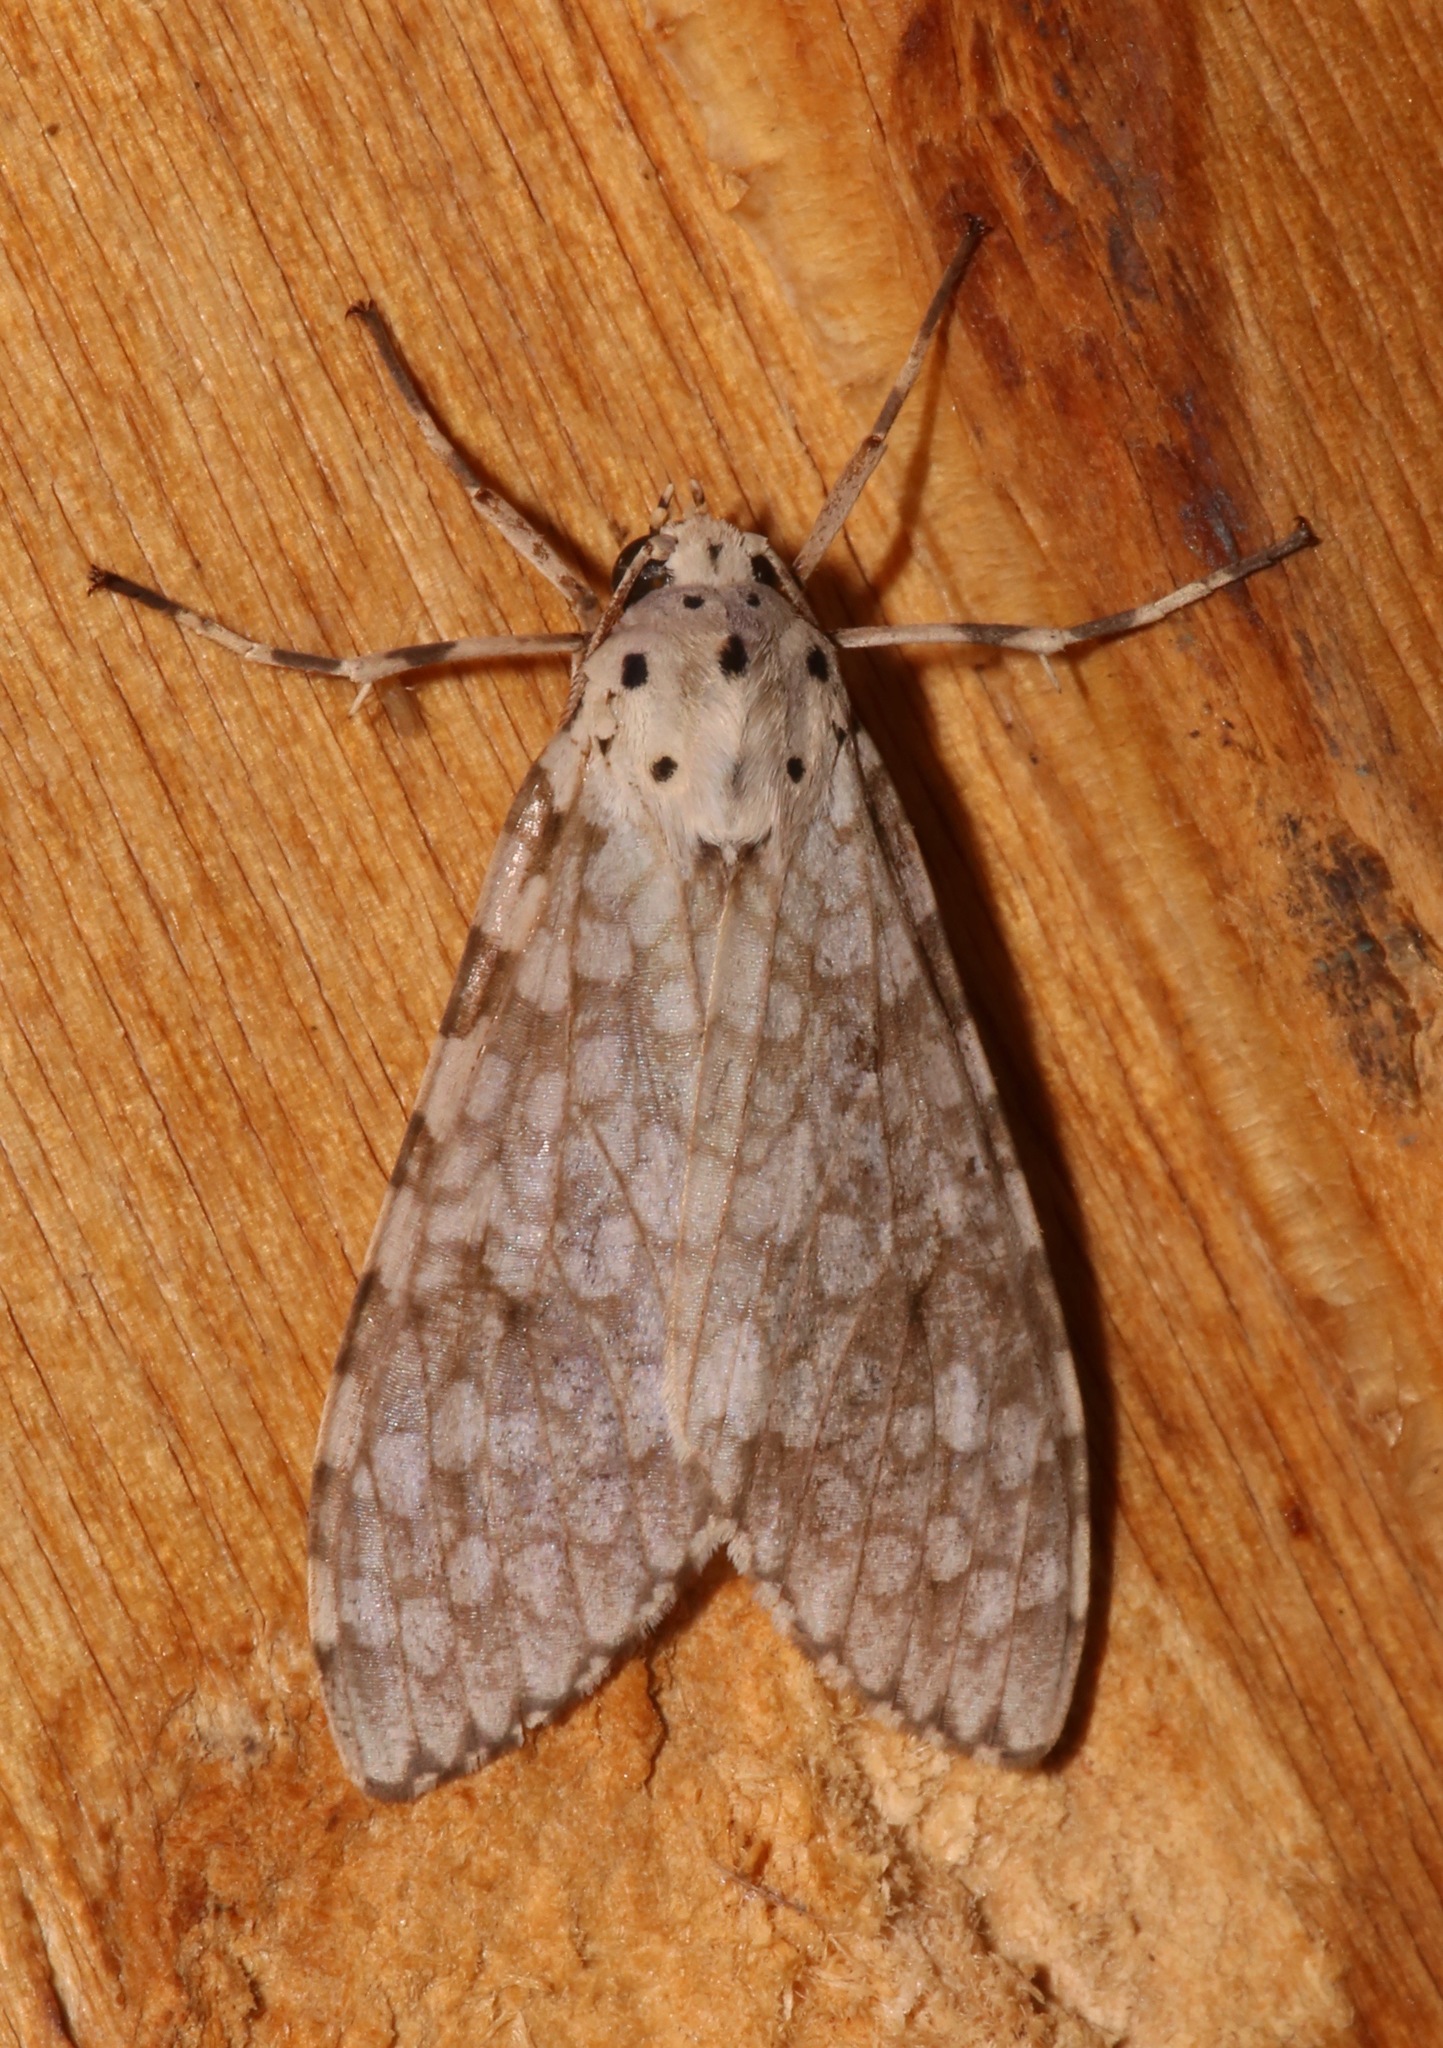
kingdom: Animalia
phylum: Arthropoda
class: Insecta
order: Lepidoptera
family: Erebidae
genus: Carales
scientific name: Carales arizonensis
